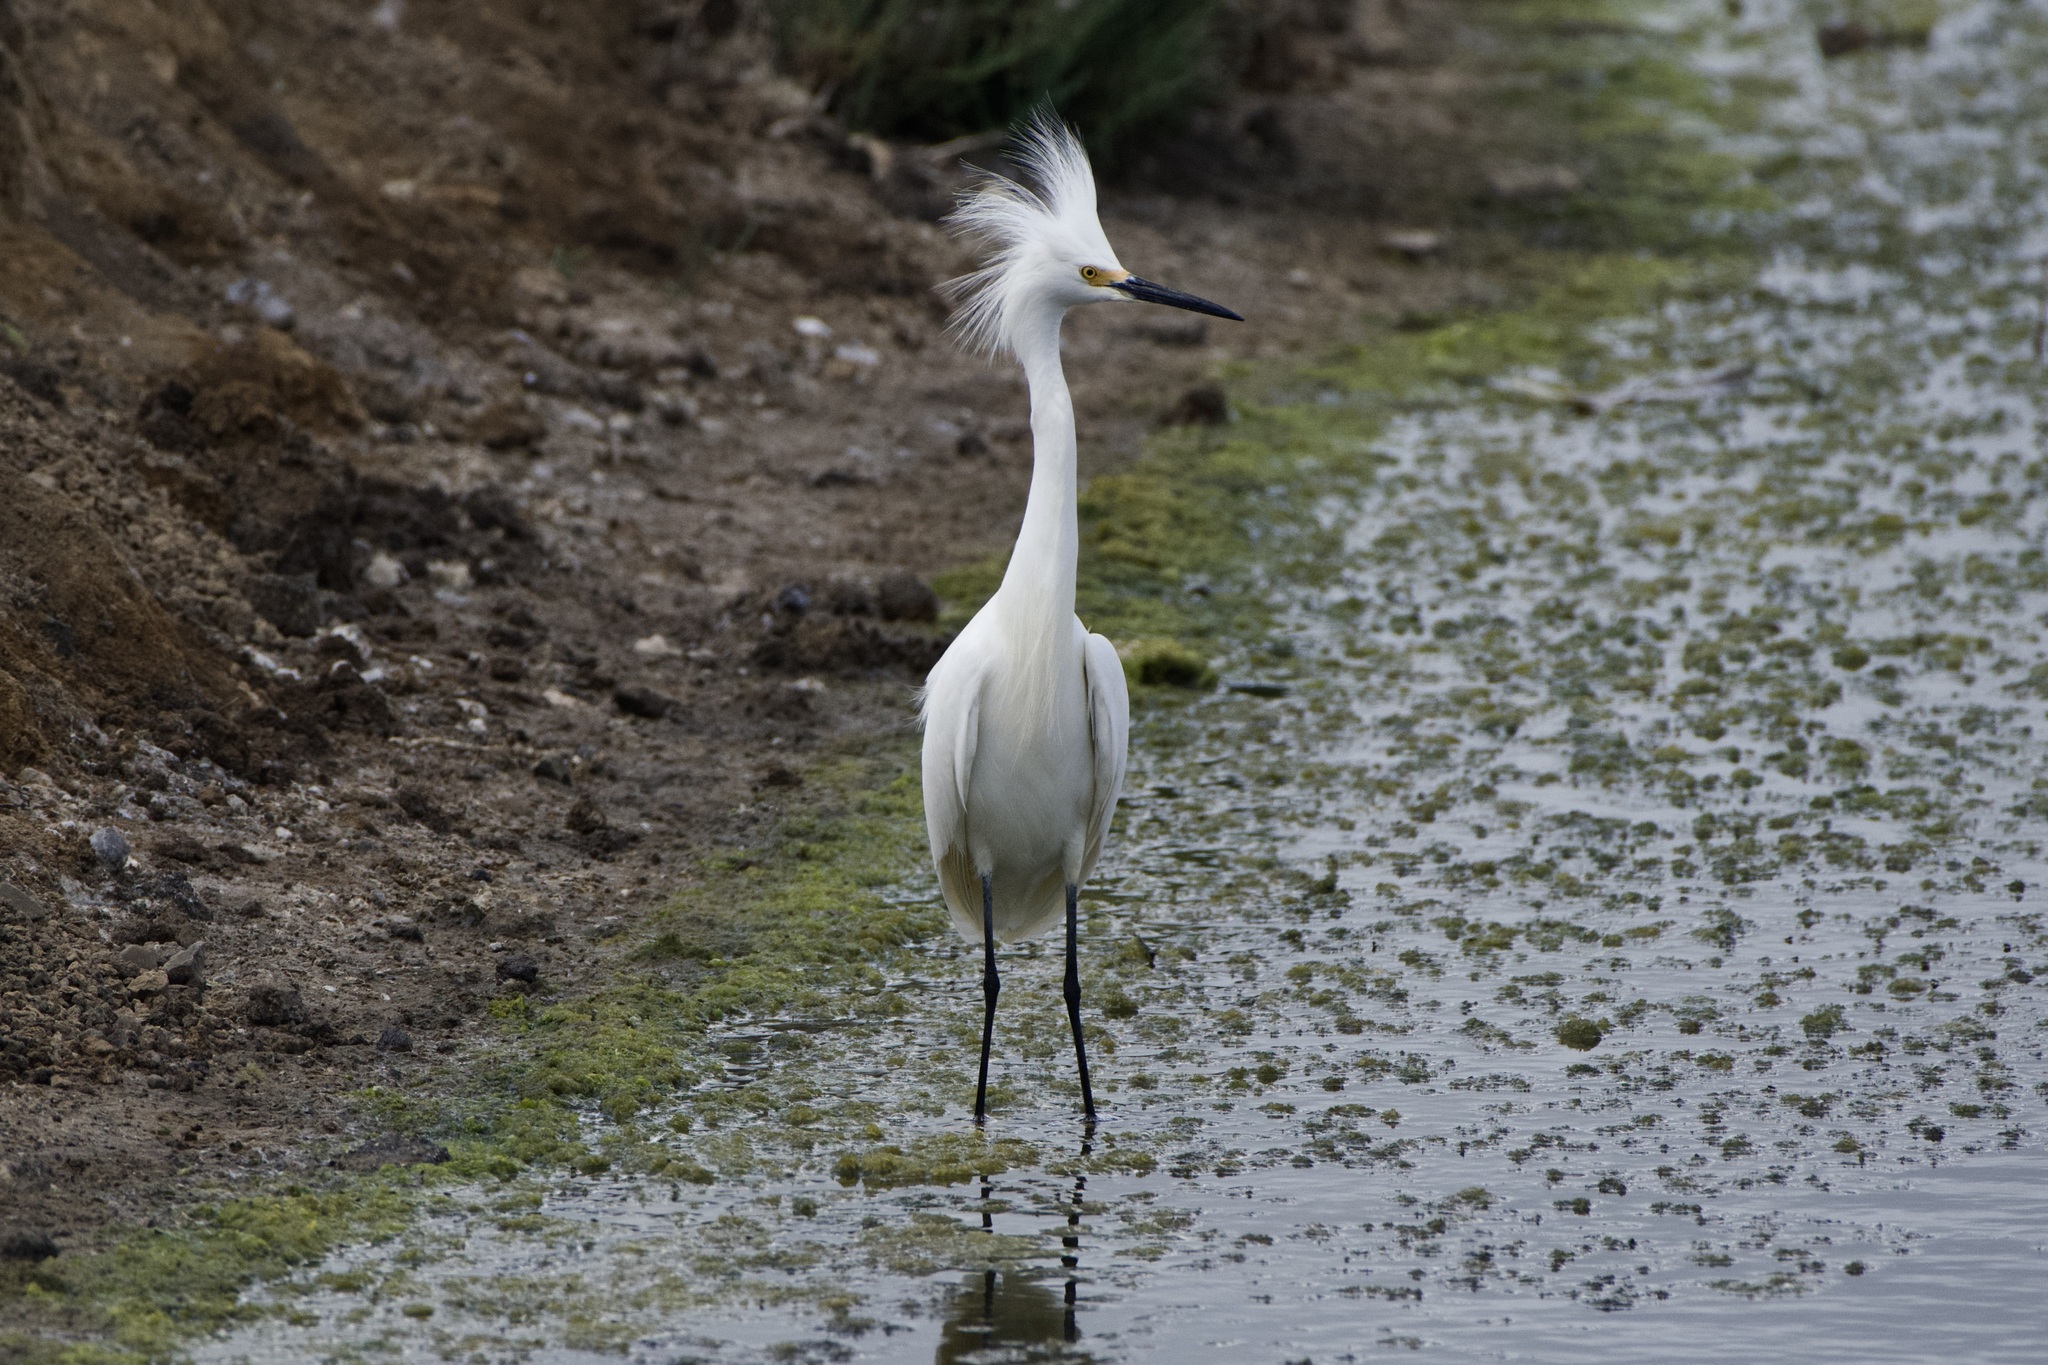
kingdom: Animalia
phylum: Chordata
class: Aves
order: Pelecaniformes
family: Ardeidae
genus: Egretta
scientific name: Egretta thula
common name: Snowy egret
